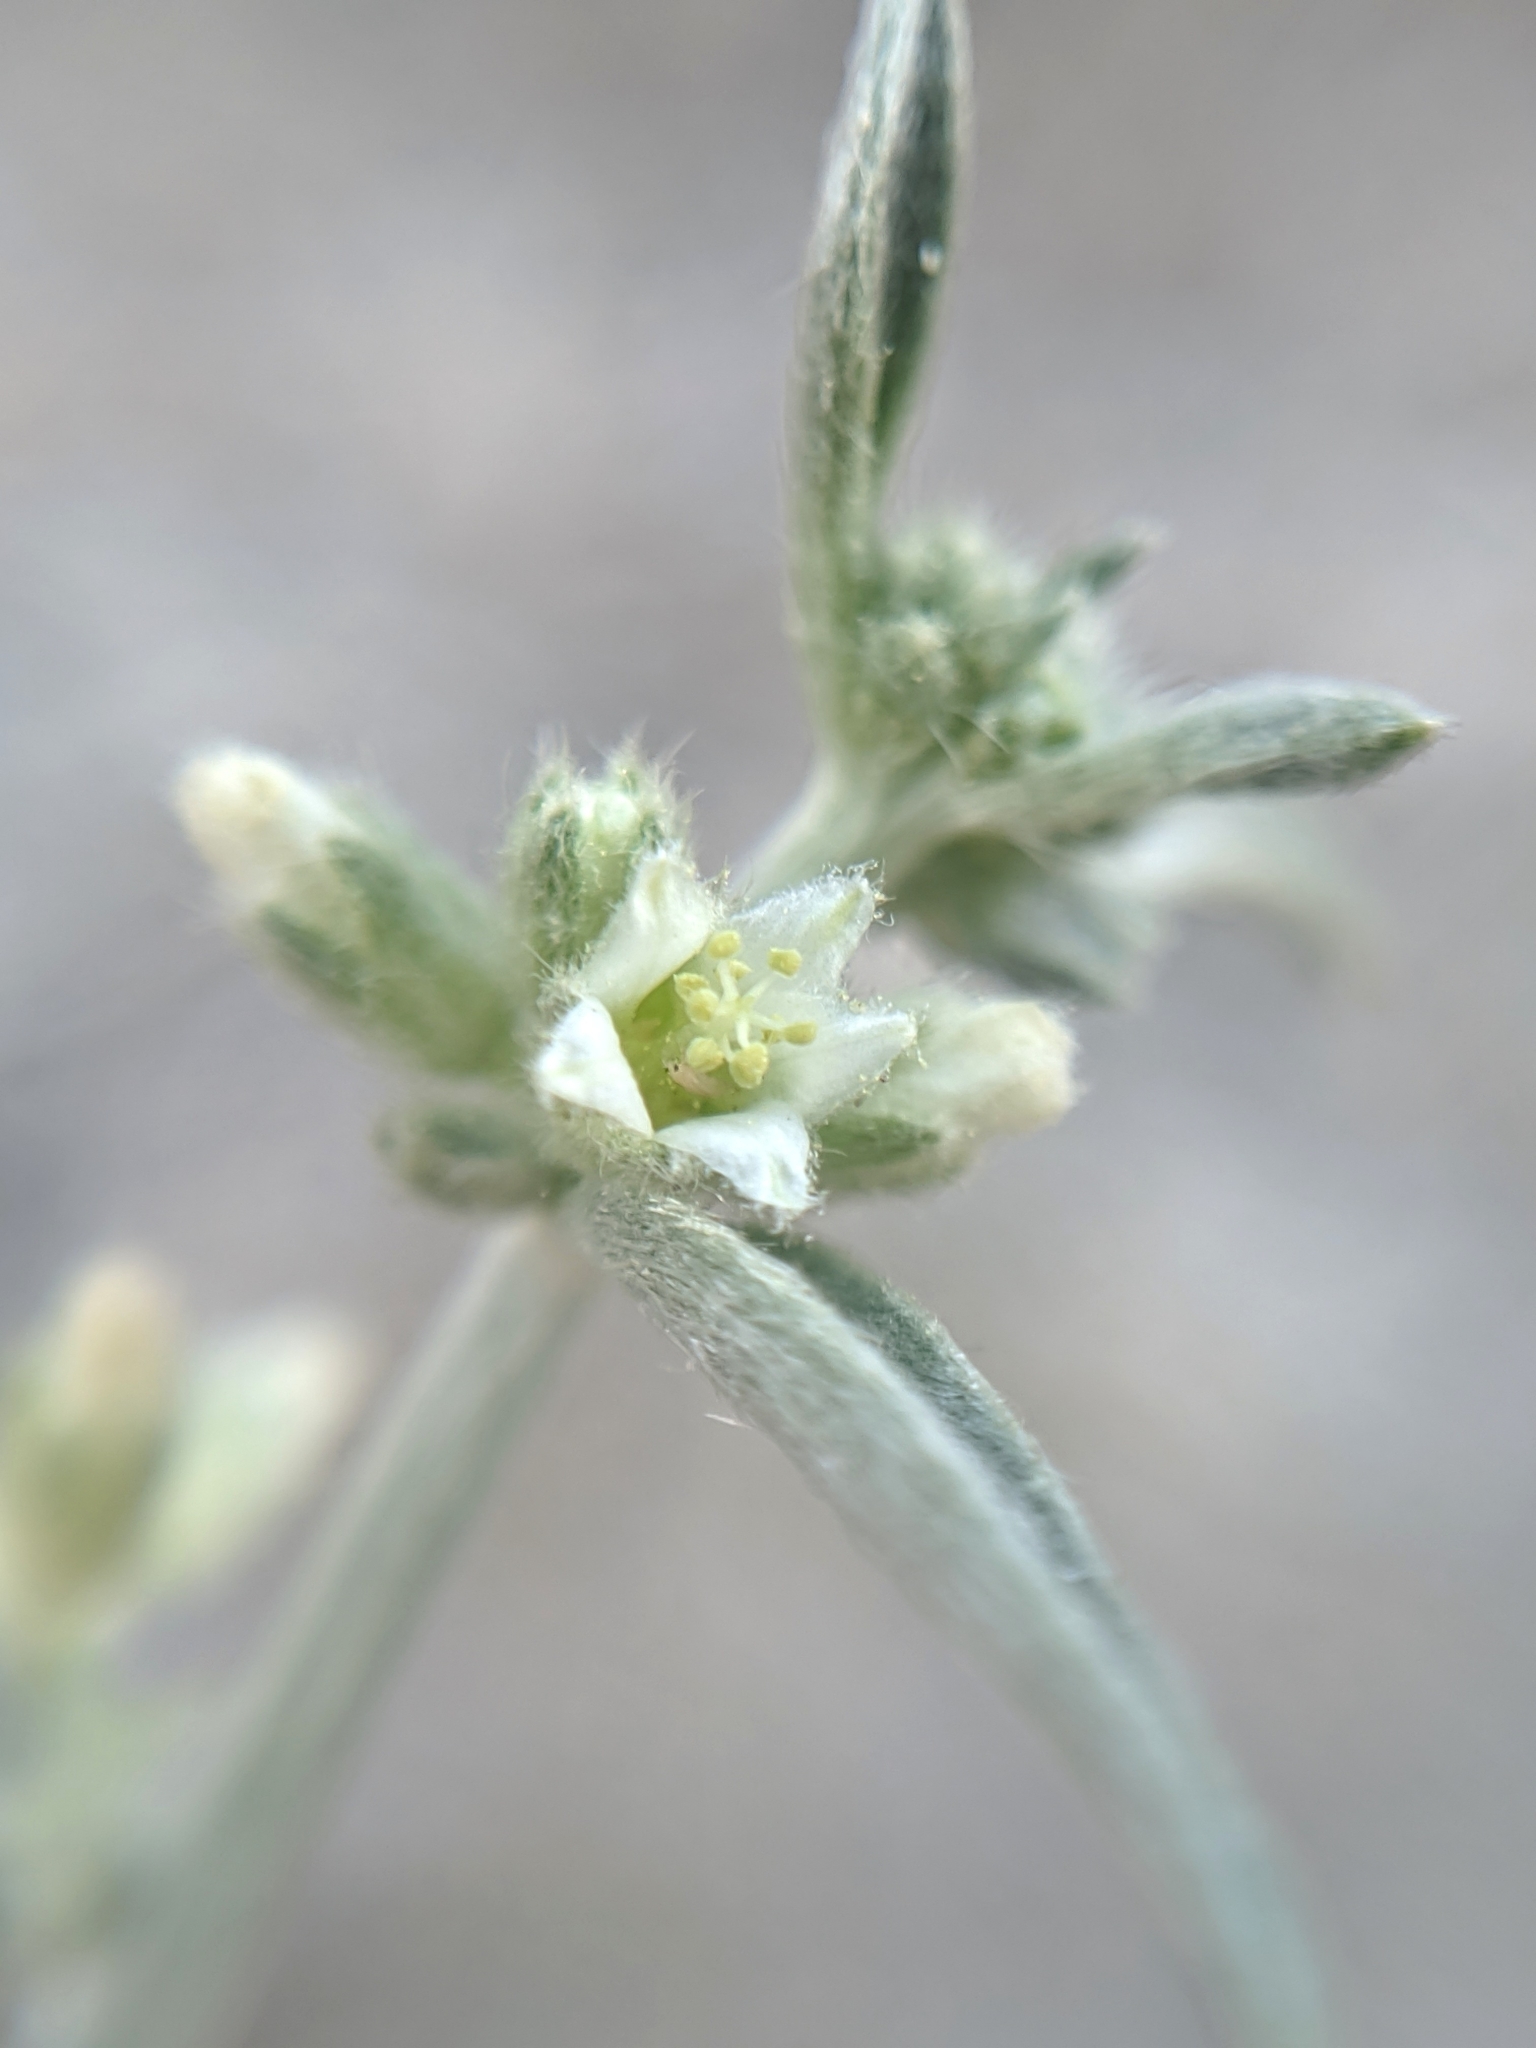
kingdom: Plantae
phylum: Tracheophyta
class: Magnoliopsida
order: Malpighiales
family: Euphorbiaceae
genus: Ditaxis
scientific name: Ditaxis lanceolata
